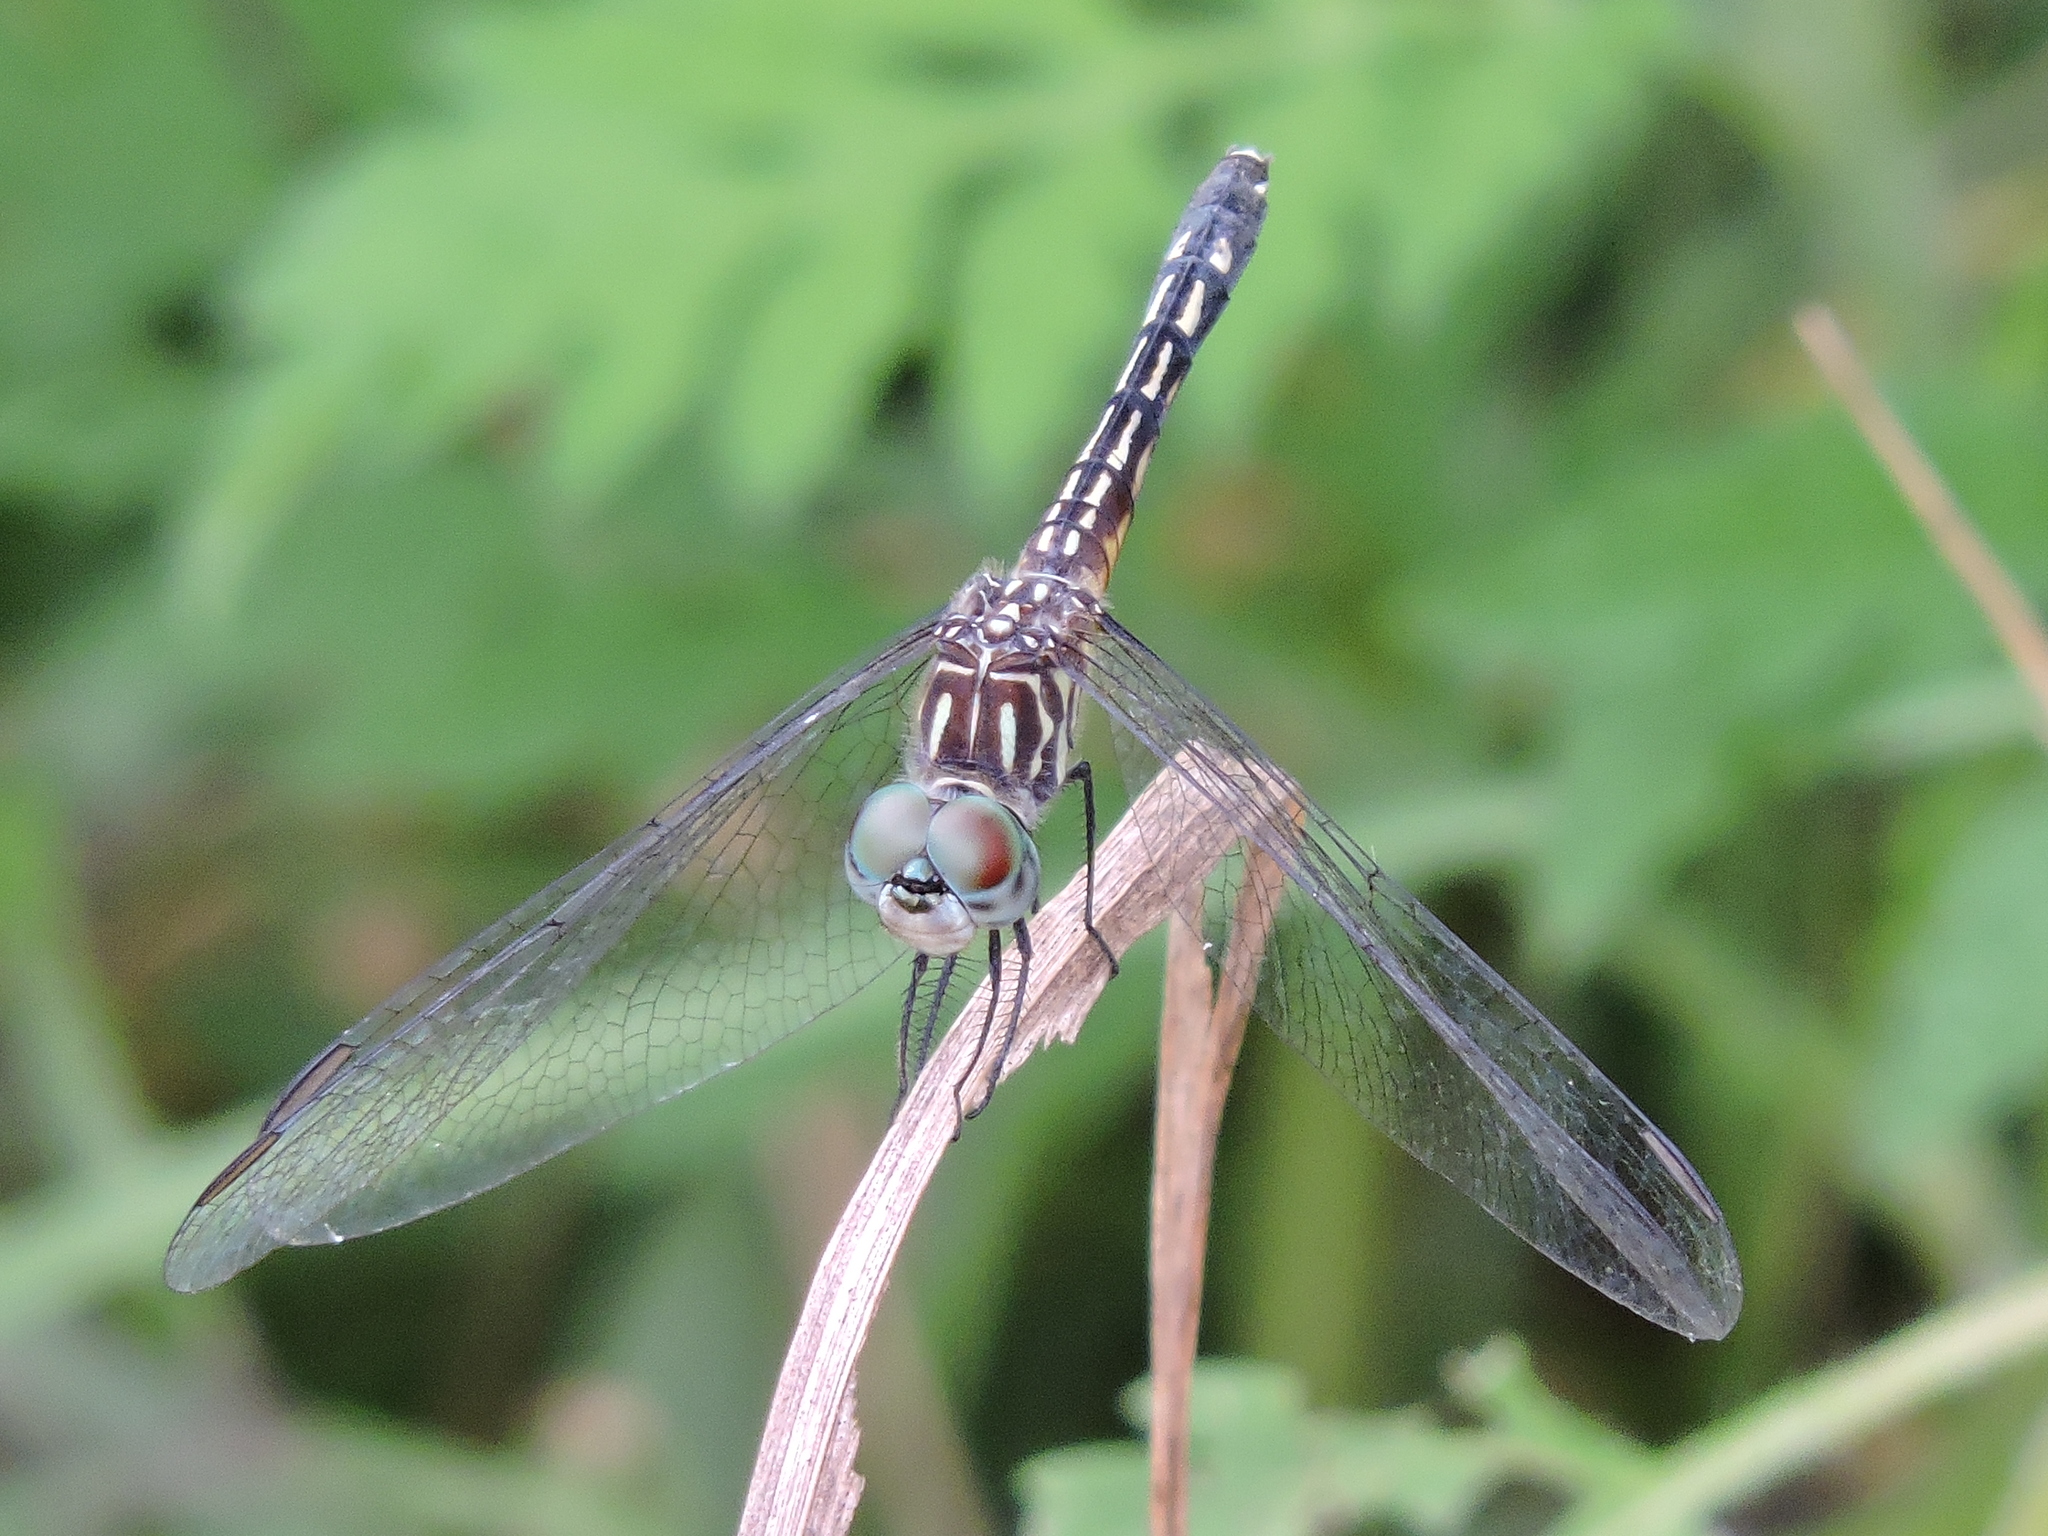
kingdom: Animalia
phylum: Arthropoda
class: Insecta
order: Odonata
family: Libellulidae
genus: Pachydiplax
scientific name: Pachydiplax longipennis
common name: Blue dasher
